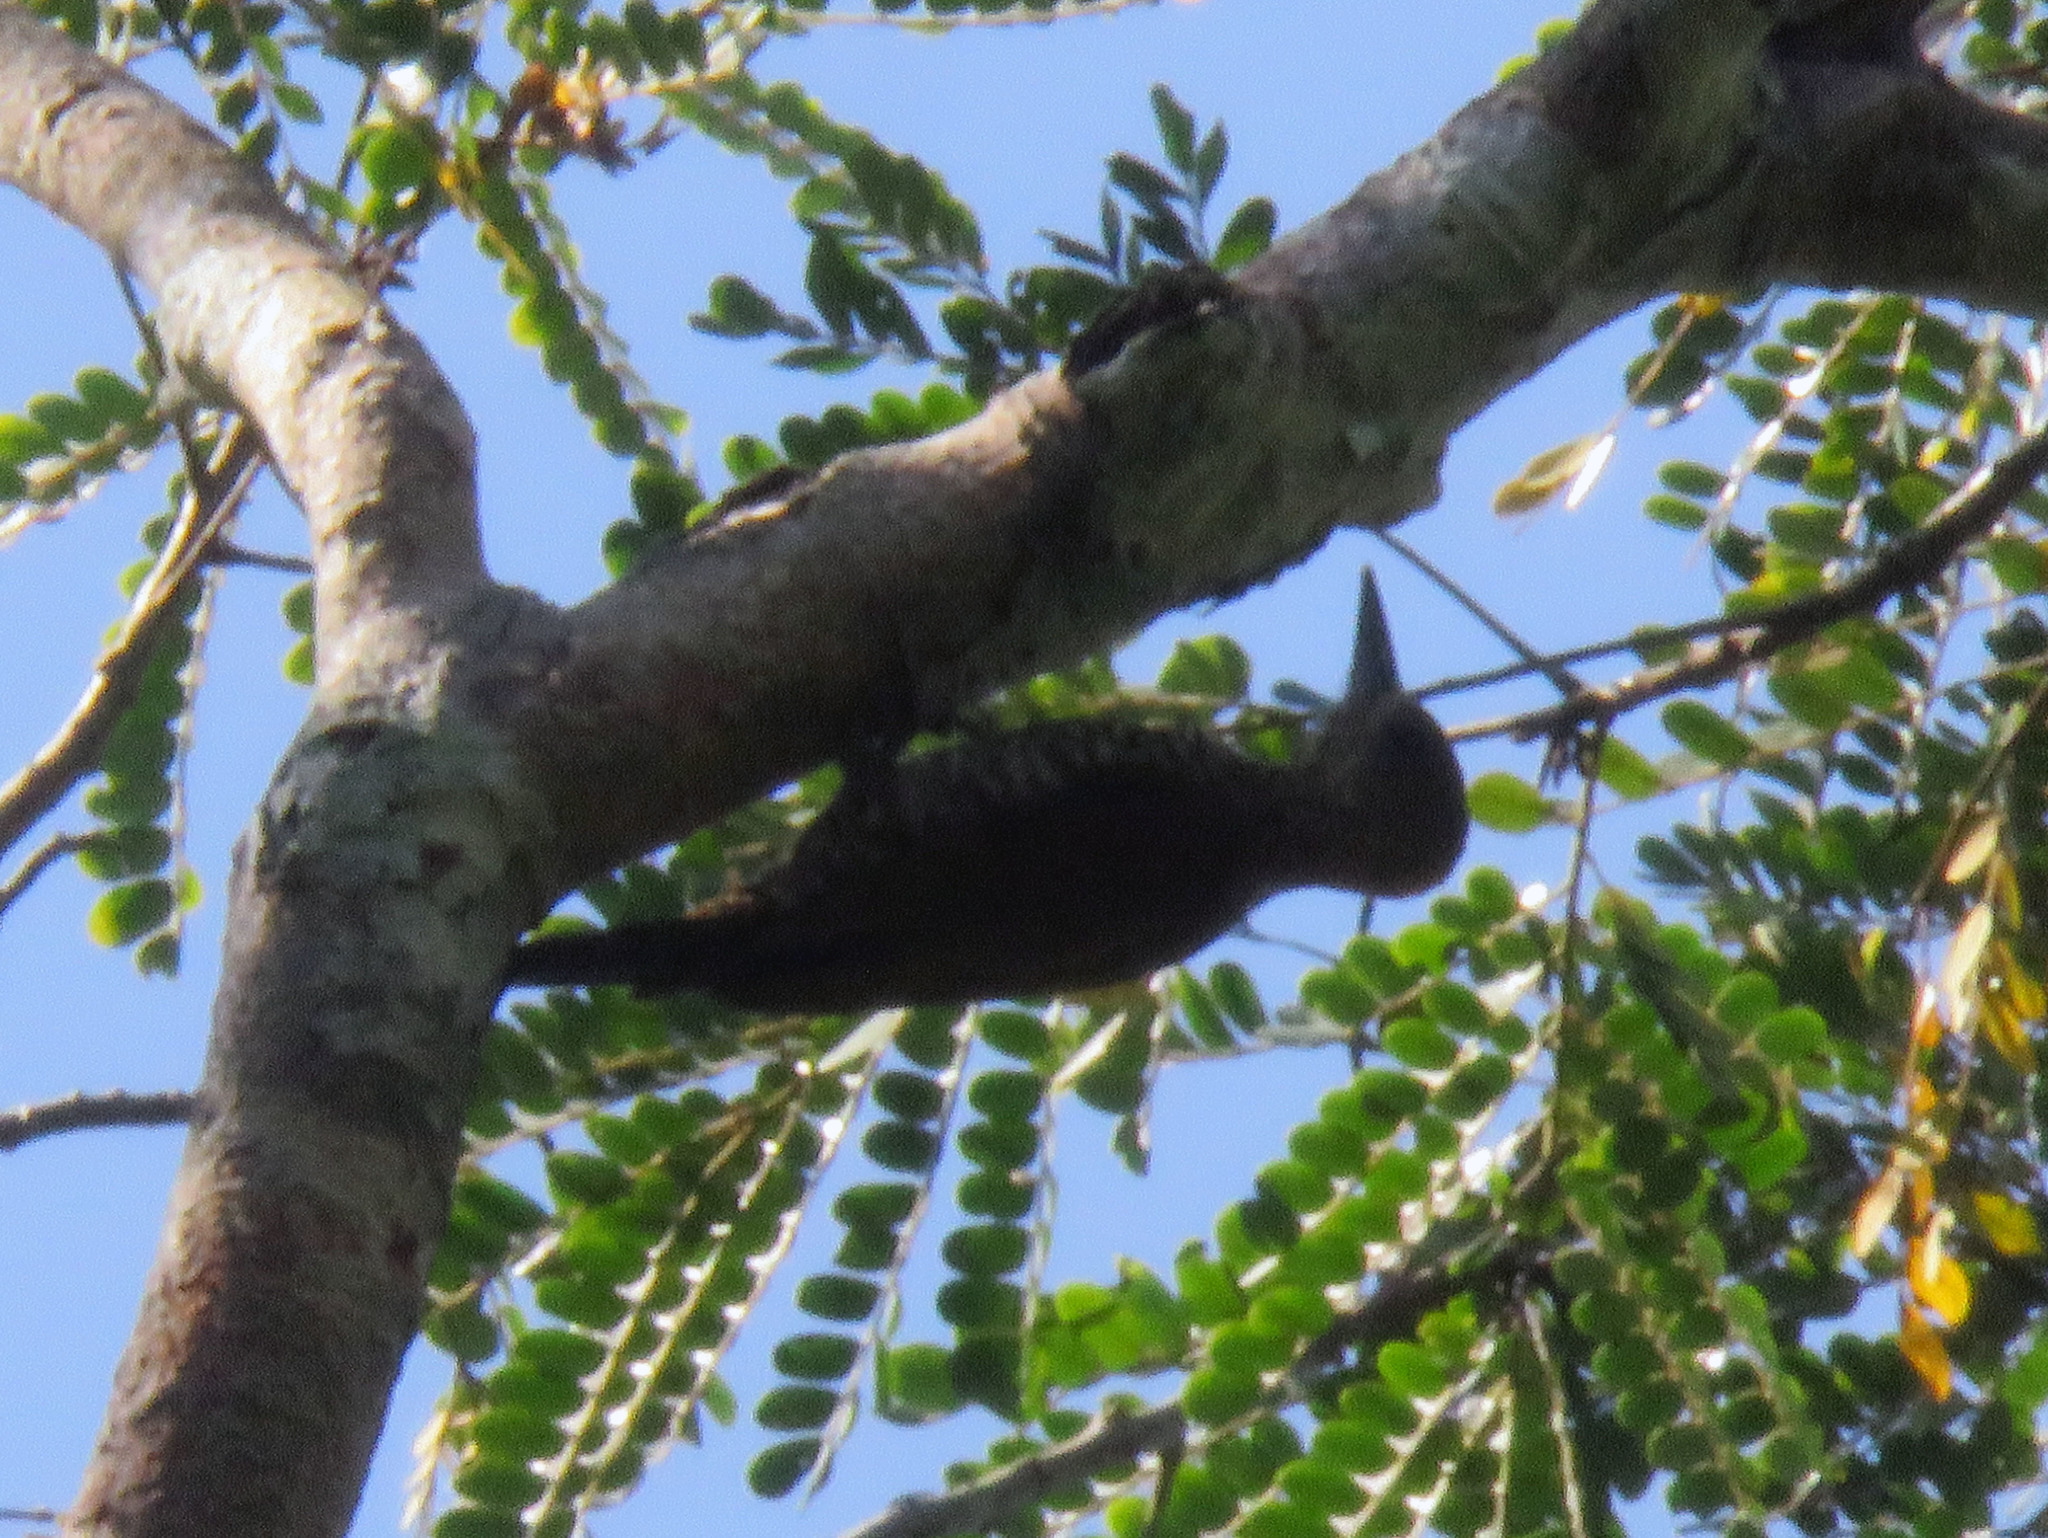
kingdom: Animalia
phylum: Chordata
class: Aves
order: Piciformes
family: Picidae
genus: Veniliornis
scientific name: Veniliornis passerinus
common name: Little woodpecker
